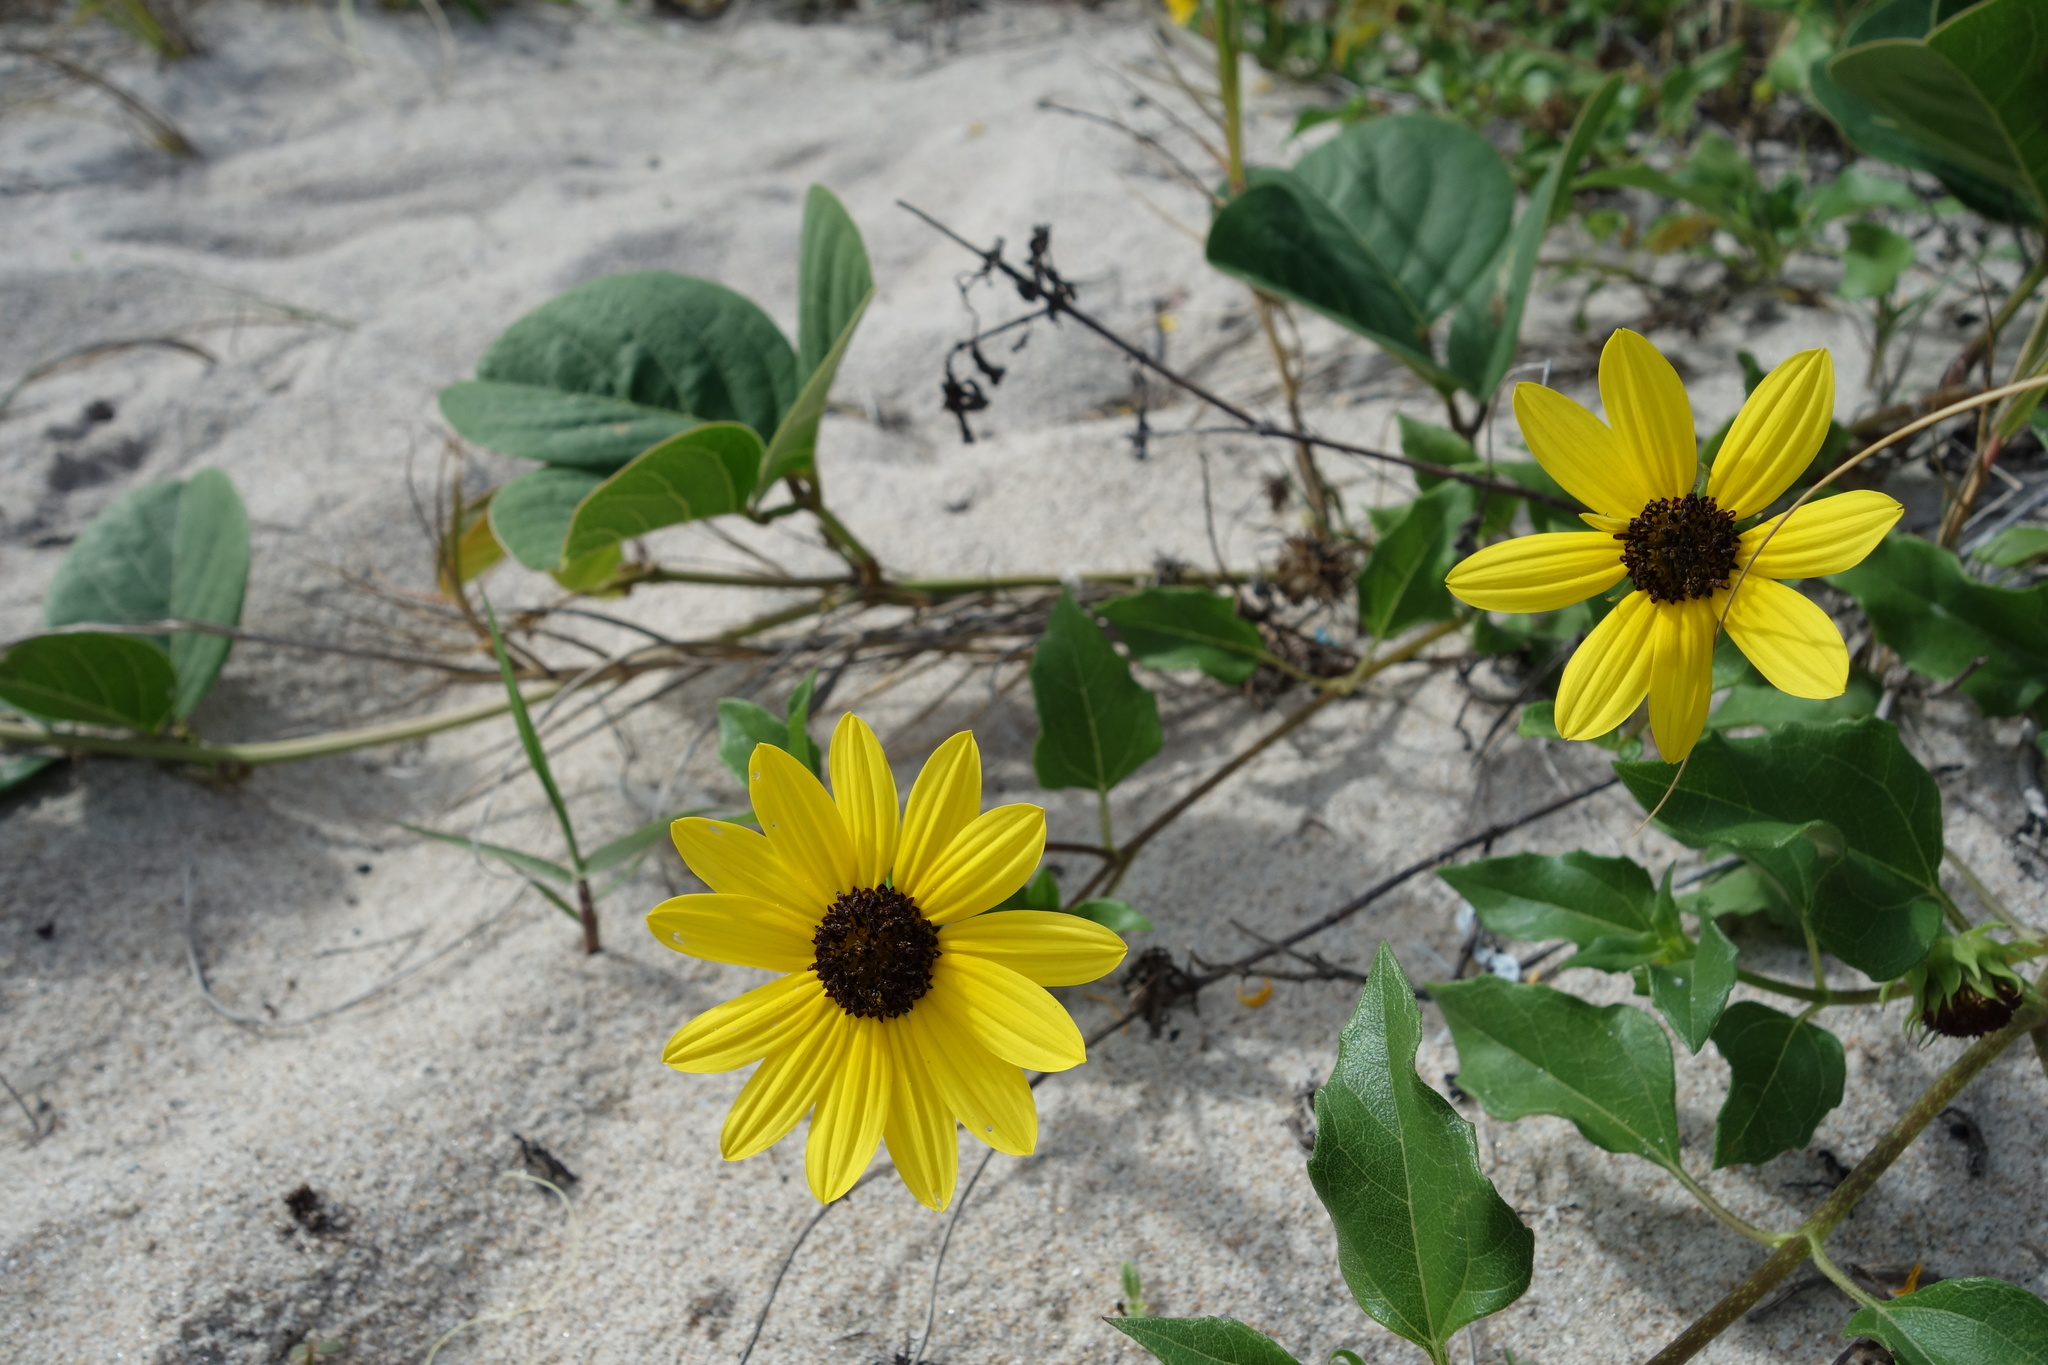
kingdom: Plantae
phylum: Tracheophyta
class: Magnoliopsida
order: Asterales
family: Asteraceae
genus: Helianthus
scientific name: Helianthus debilis
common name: Weak sunflower
